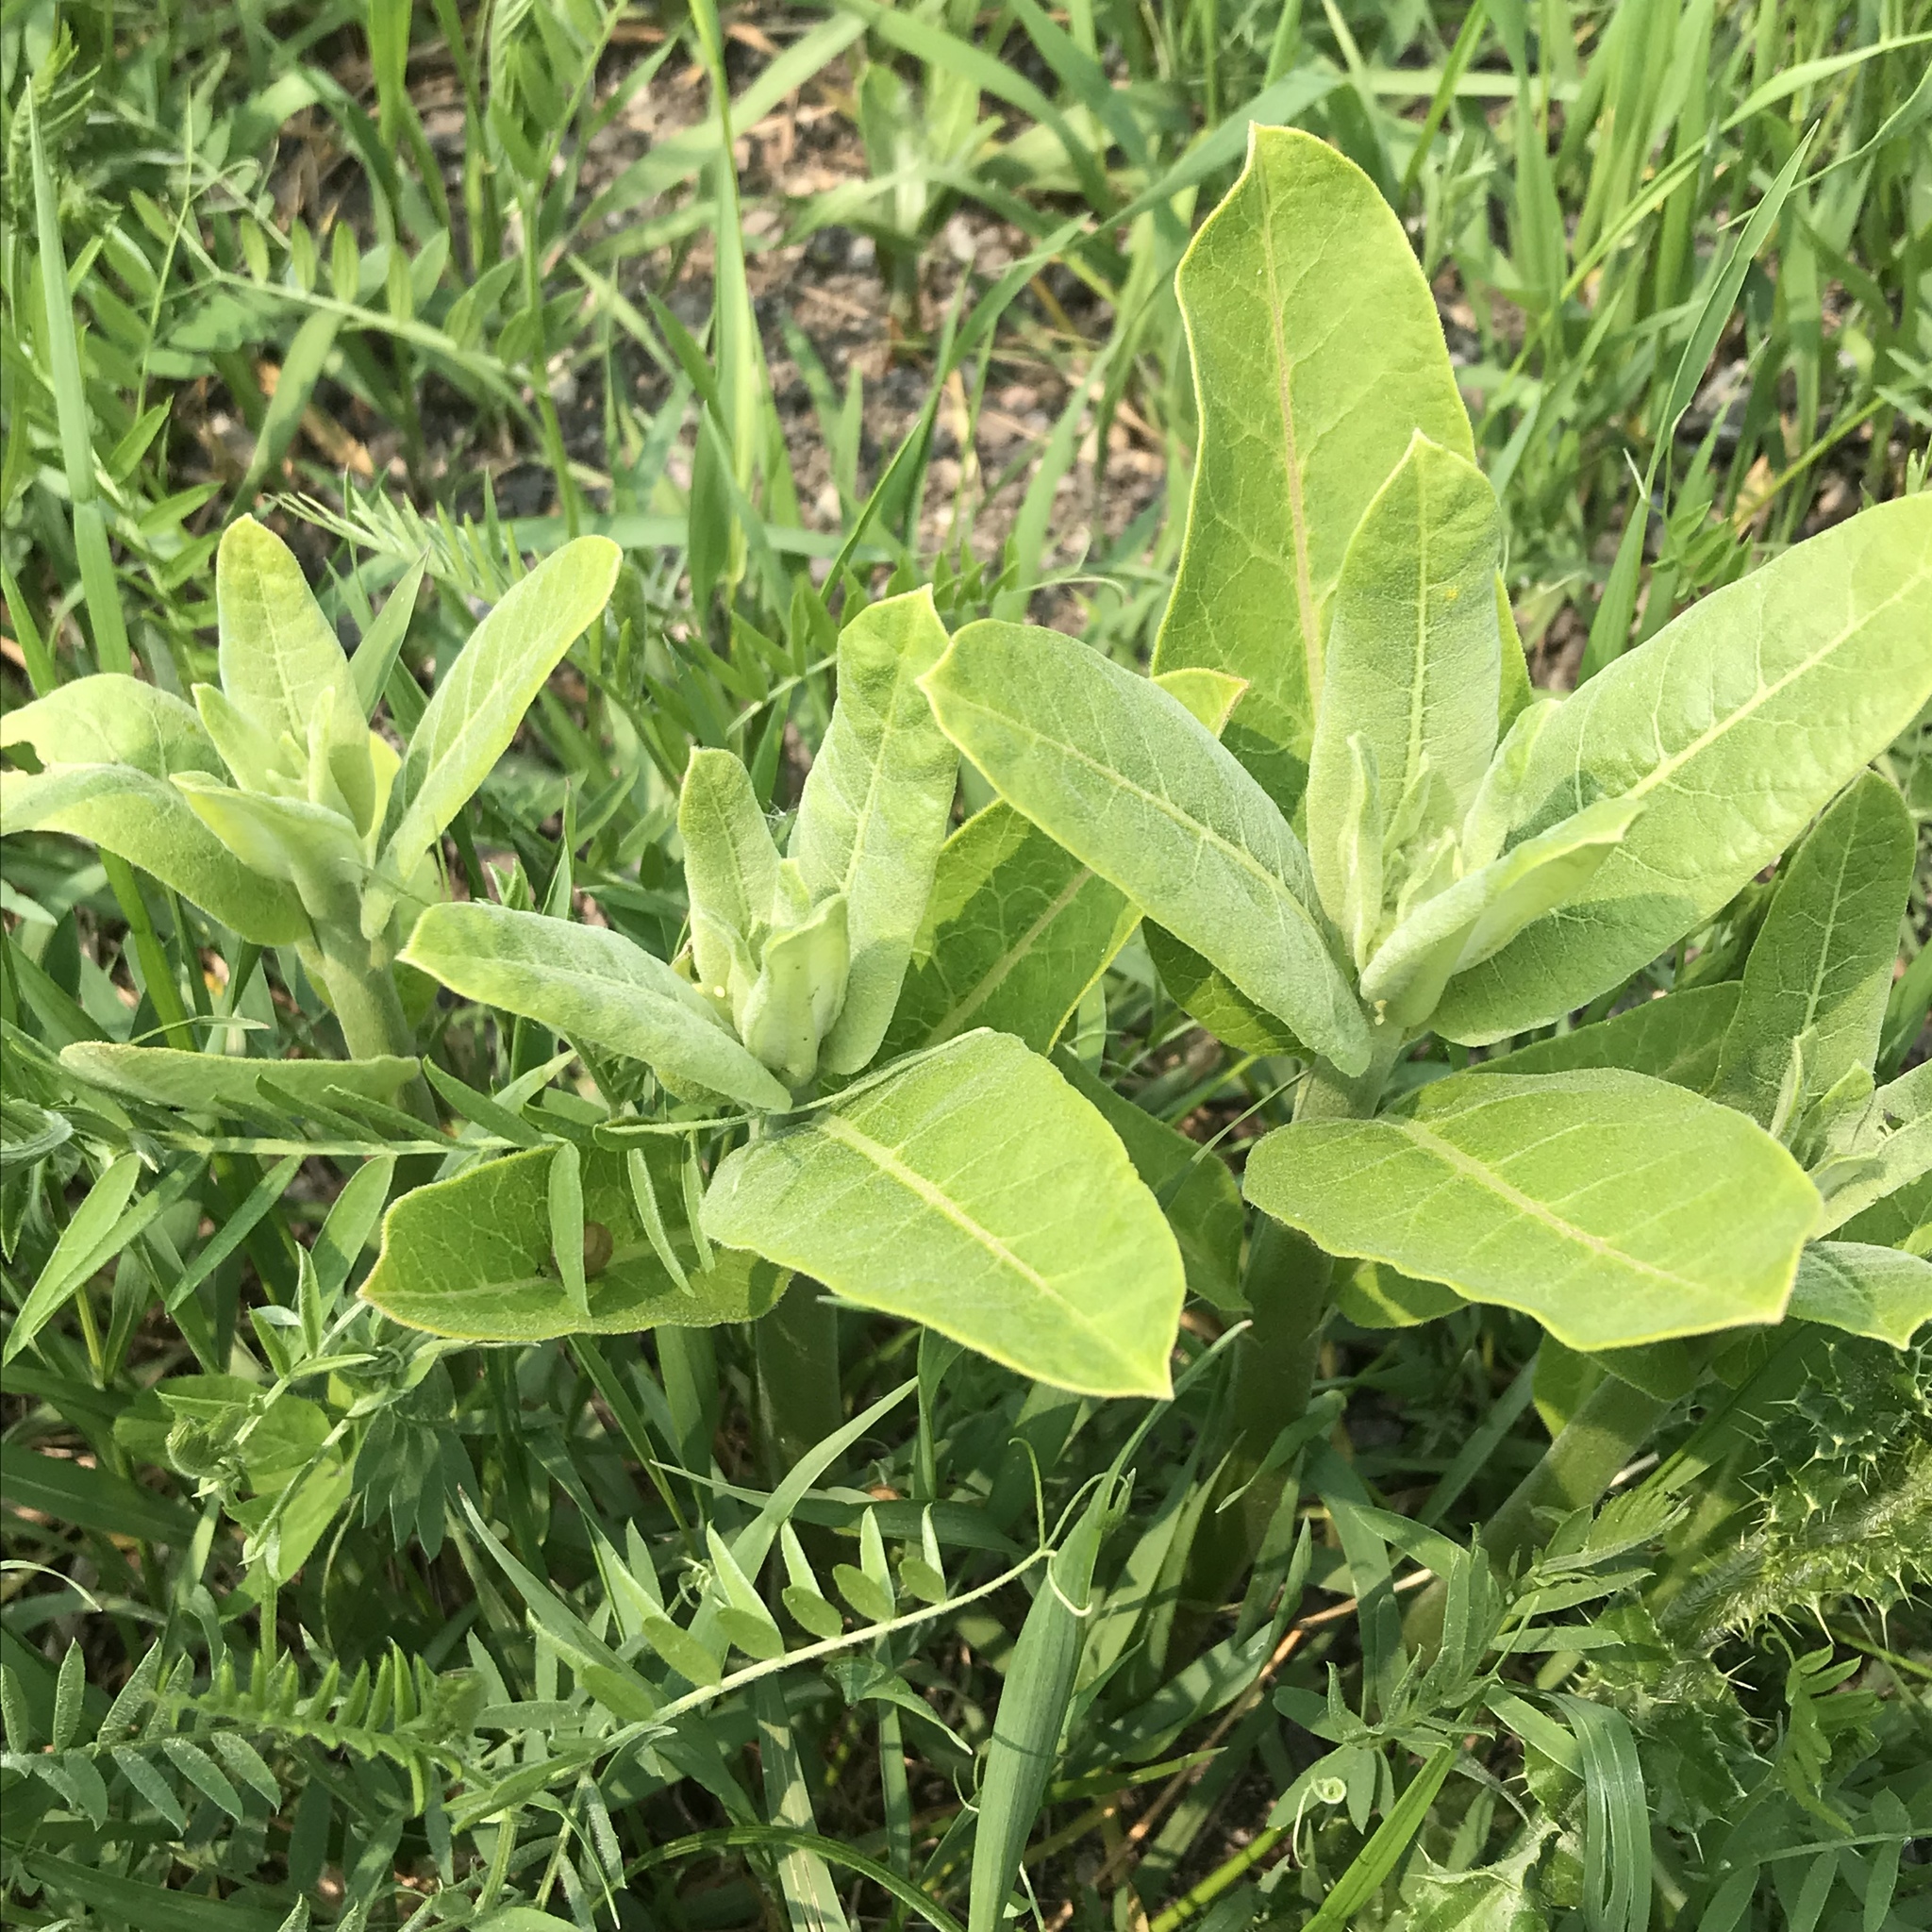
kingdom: Plantae
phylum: Tracheophyta
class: Magnoliopsida
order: Gentianales
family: Apocynaceae
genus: Asclepias
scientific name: Asclepias syriaca
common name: Common milkweed
